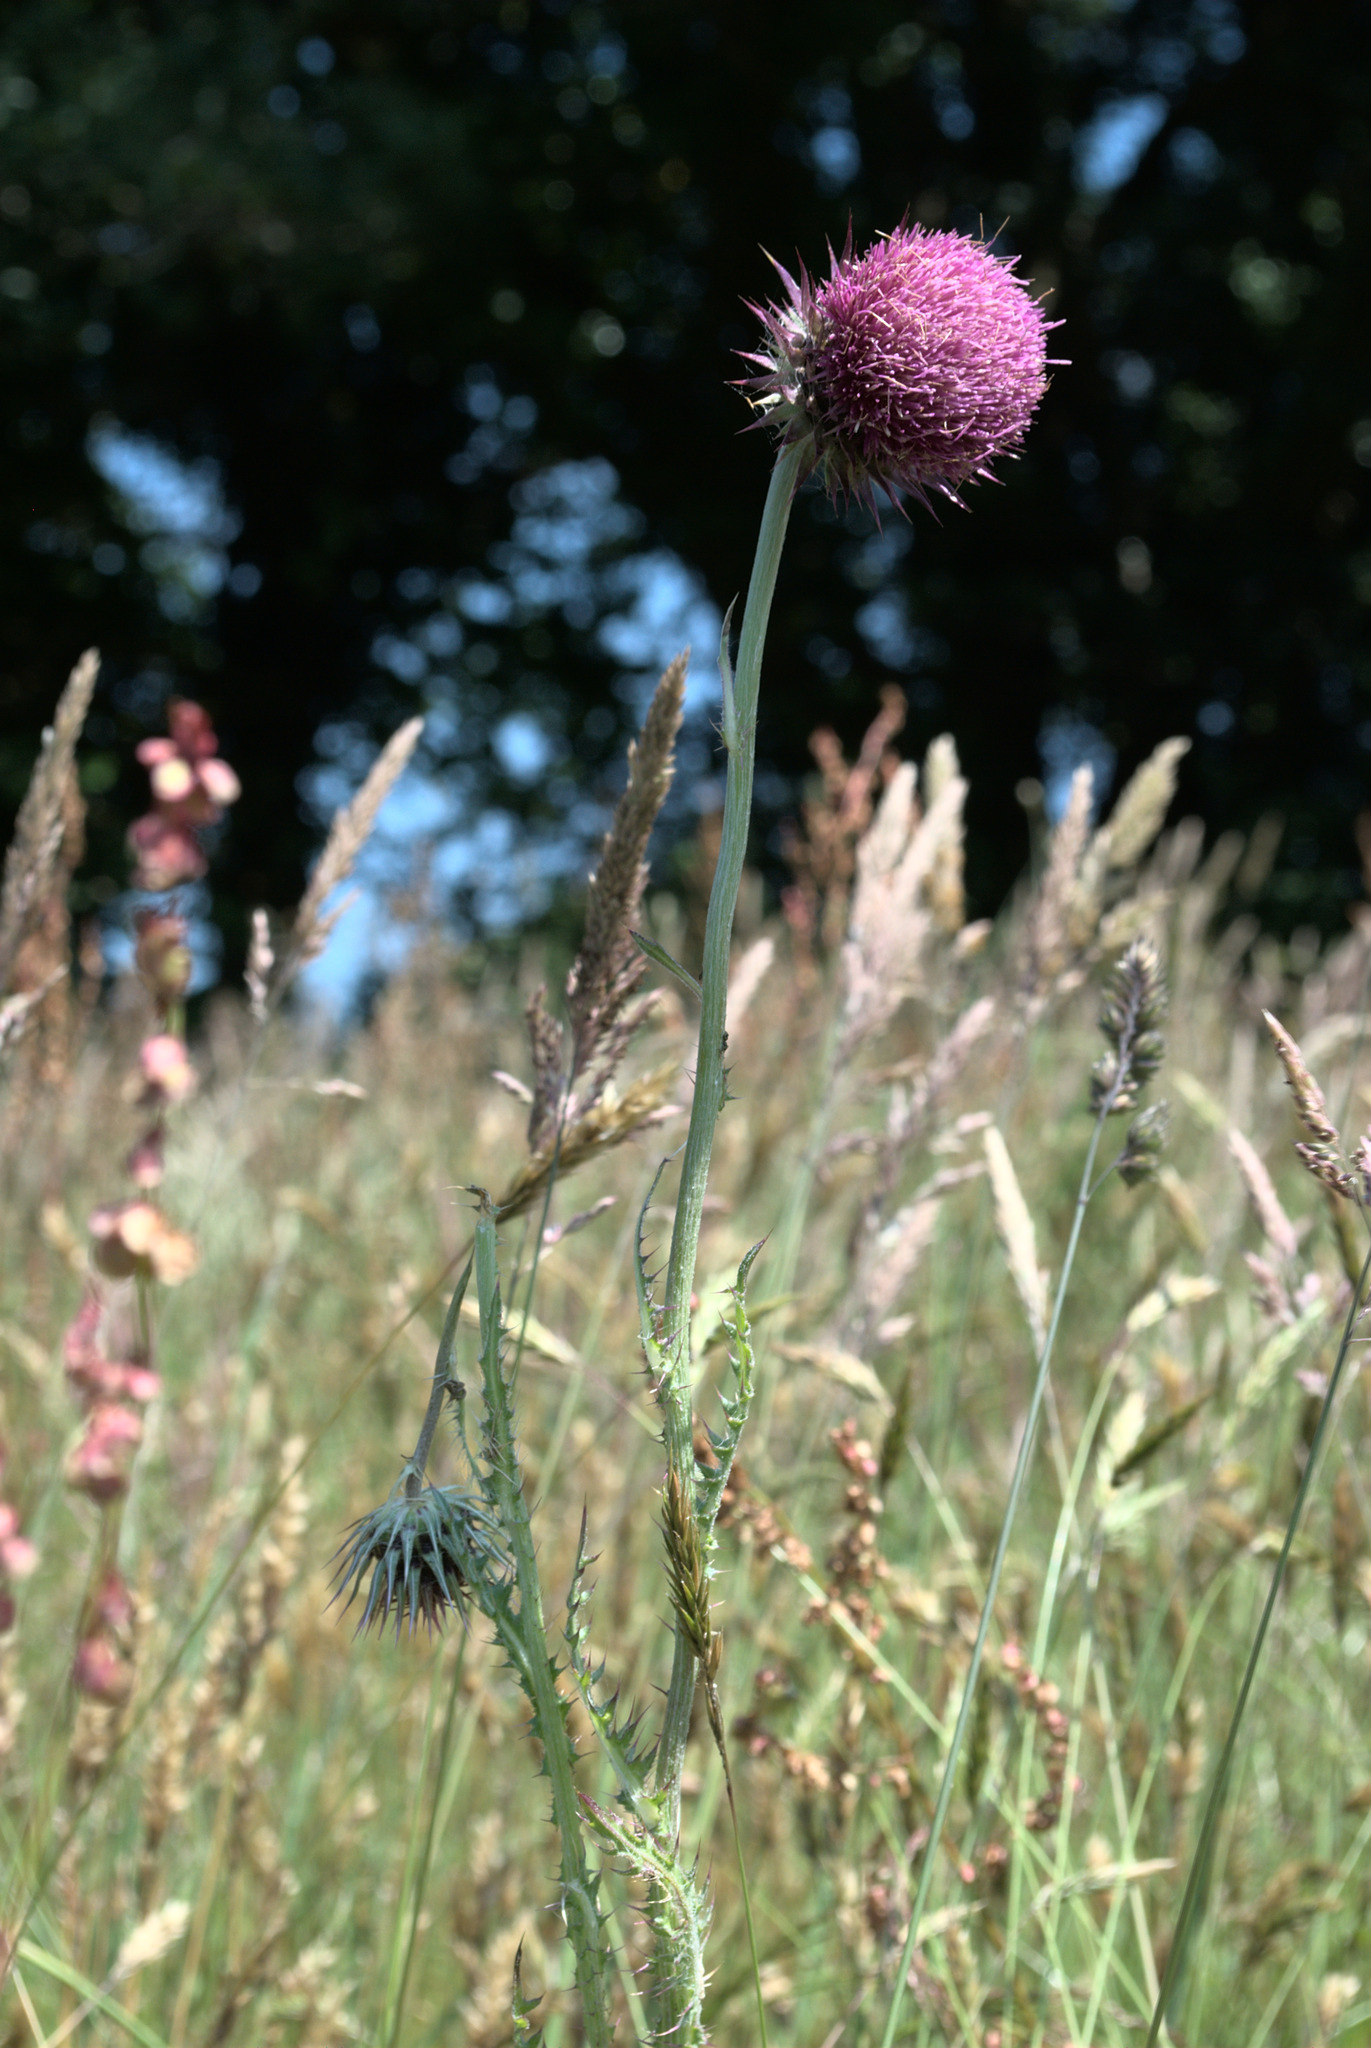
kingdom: Plantae
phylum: Tracheophyta
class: Magnoliopsida
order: Asterales
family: Asteraceae
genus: Carduus
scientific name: Carduus nutans
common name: Musk thistle
